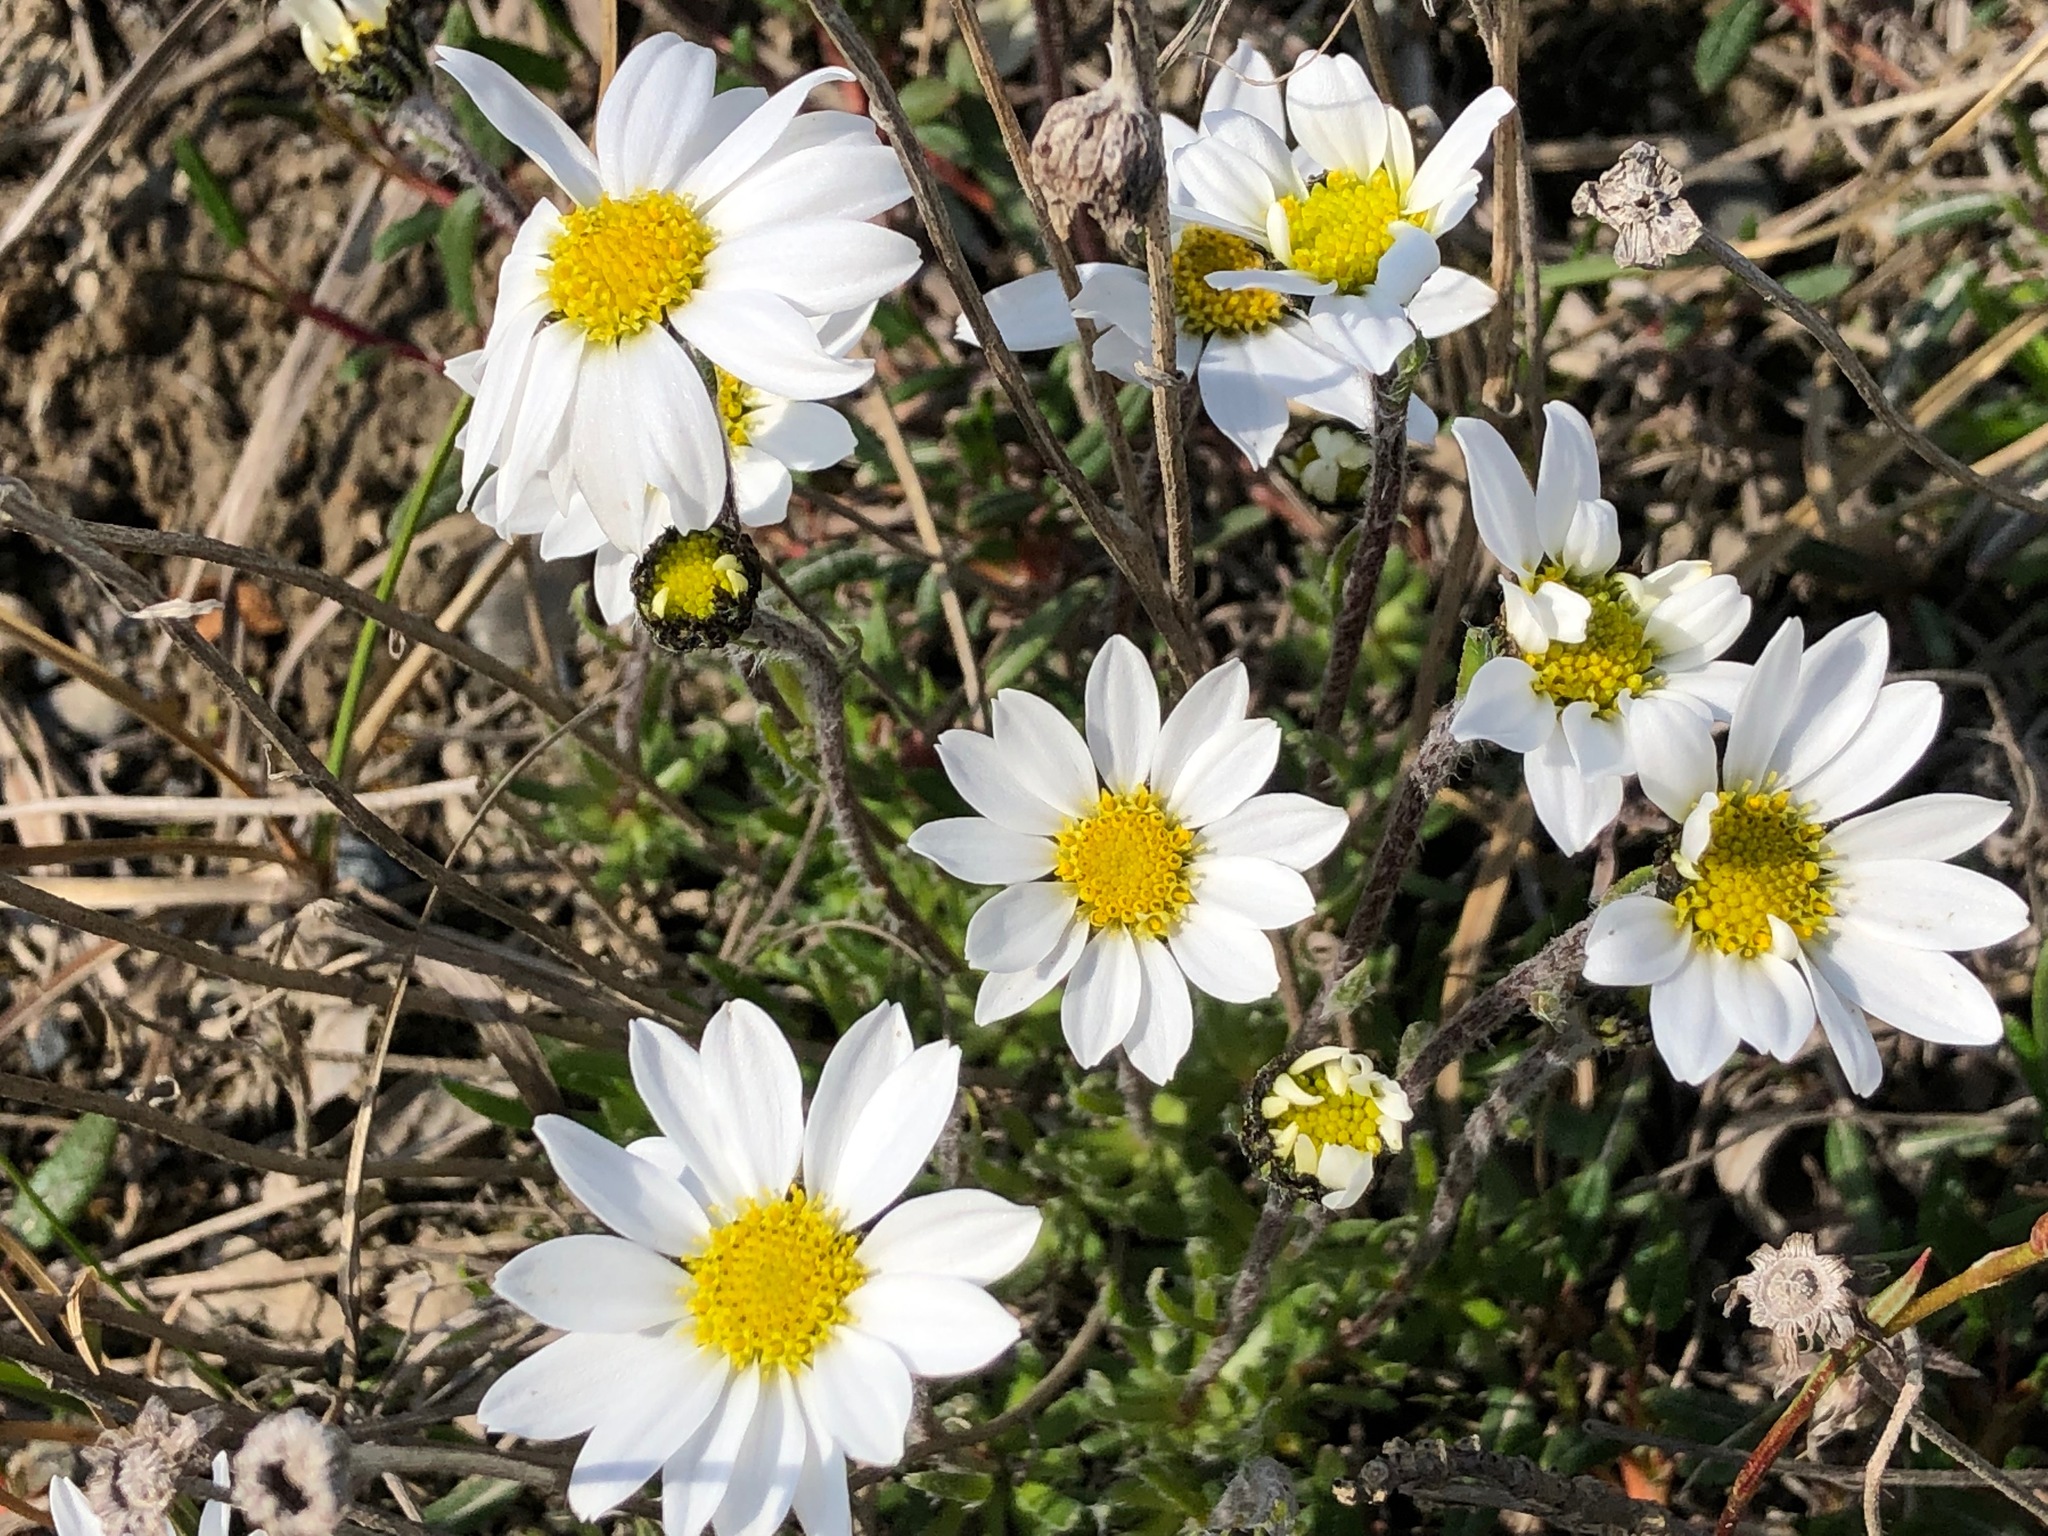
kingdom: Plantae
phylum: Tracheophyta
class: Magnoliopsida
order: Asterales
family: Asteraceae
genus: Arctanthemum
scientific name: Arctanthemum integrifolium
